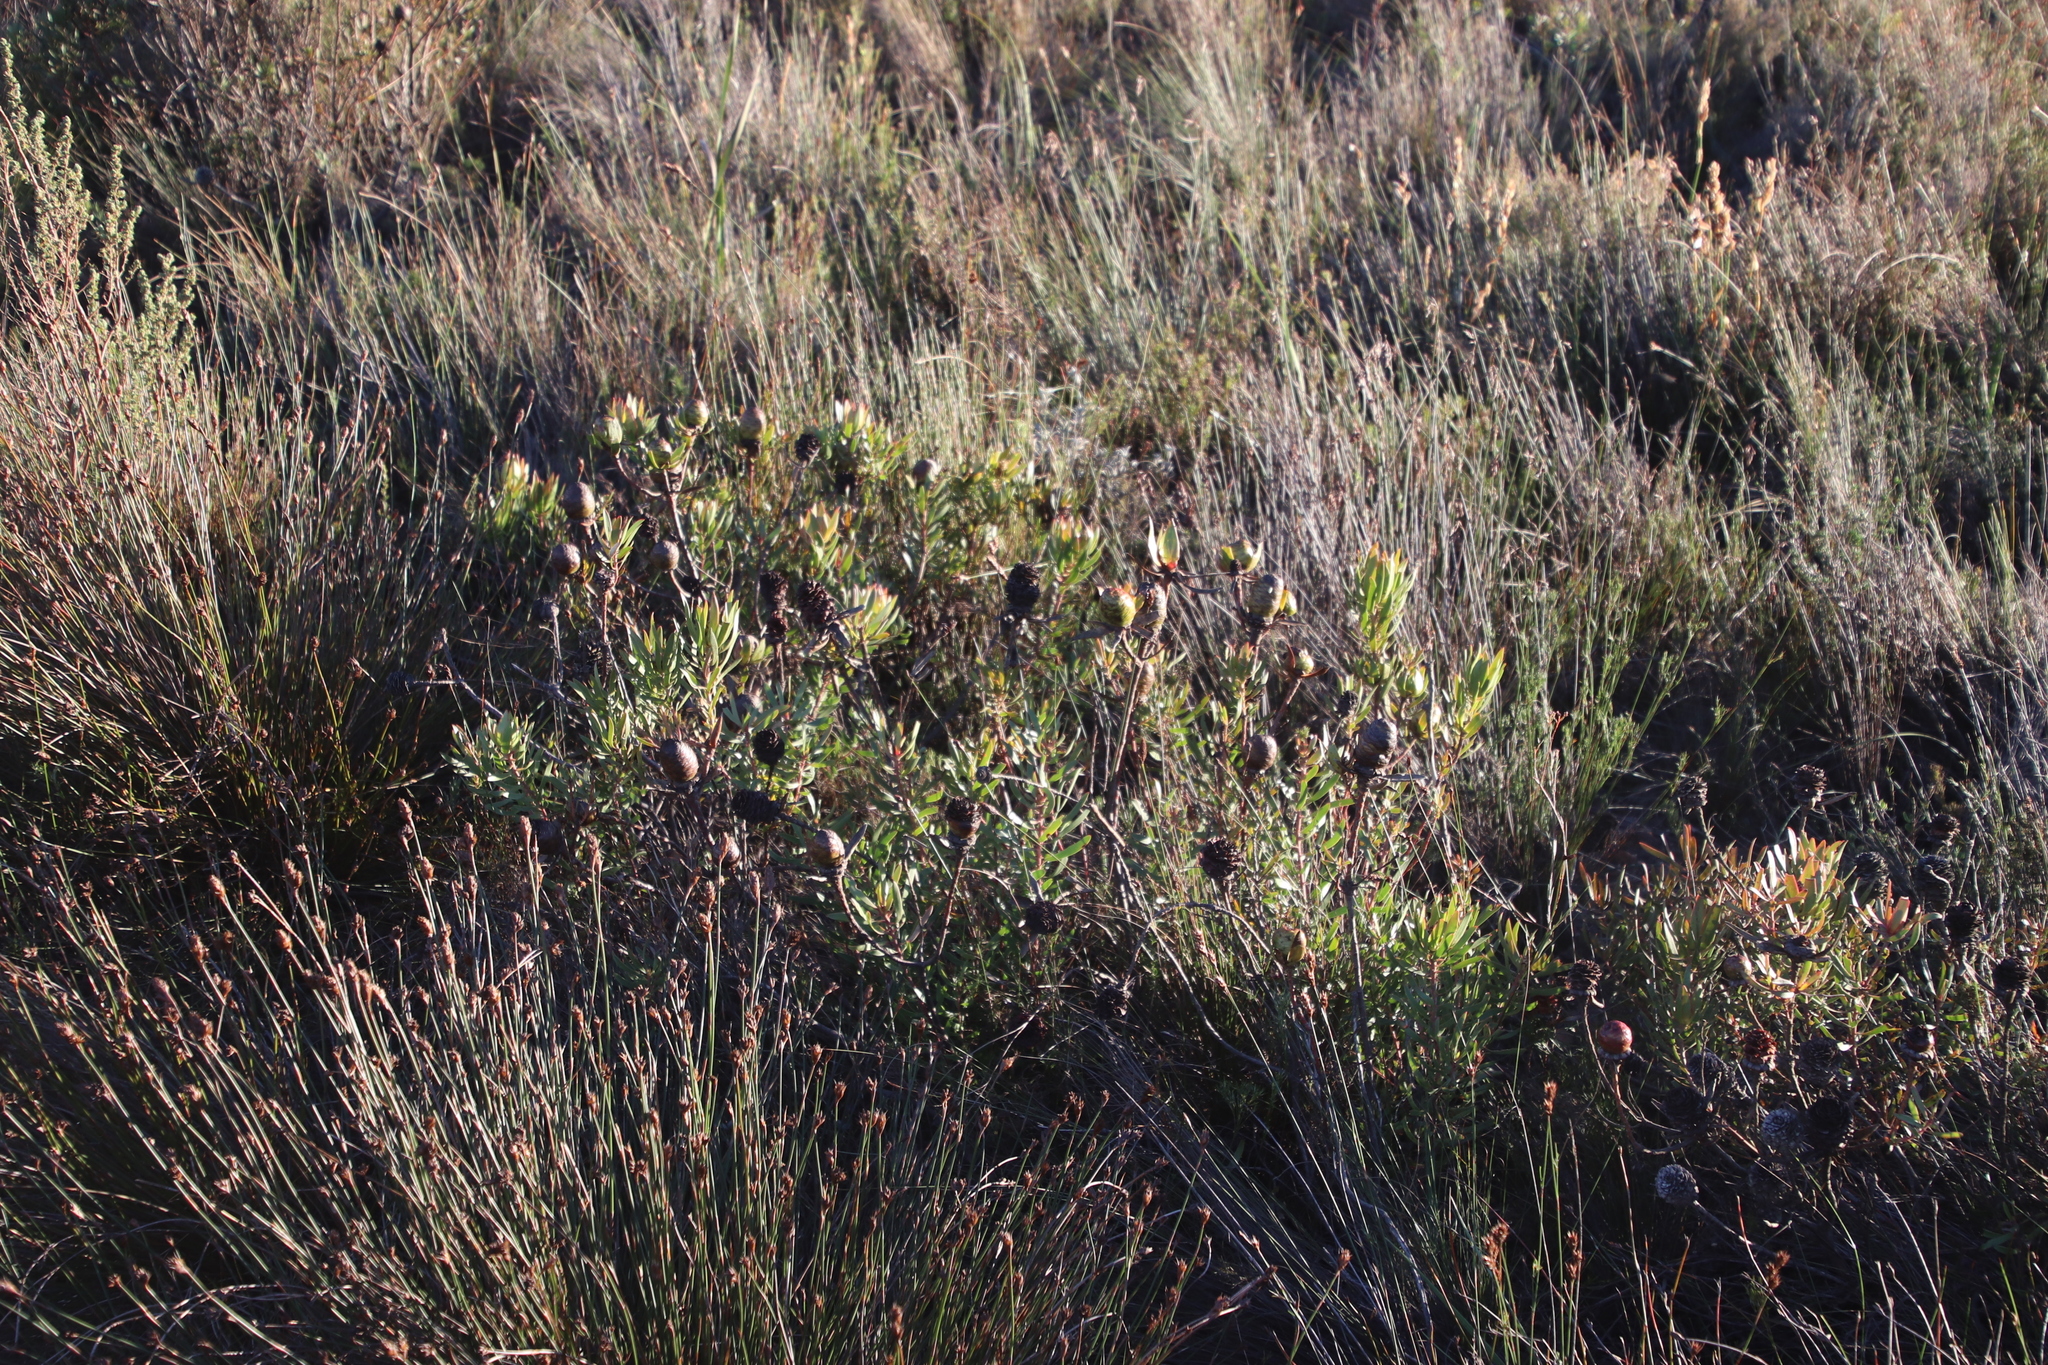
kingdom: Plantae
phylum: Tracheophyta
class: Magnoliopsida
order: Proteales
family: Proteaceae
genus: Leucadendron
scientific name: Leucadendron spissifolium
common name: Spear-leaf conebush
